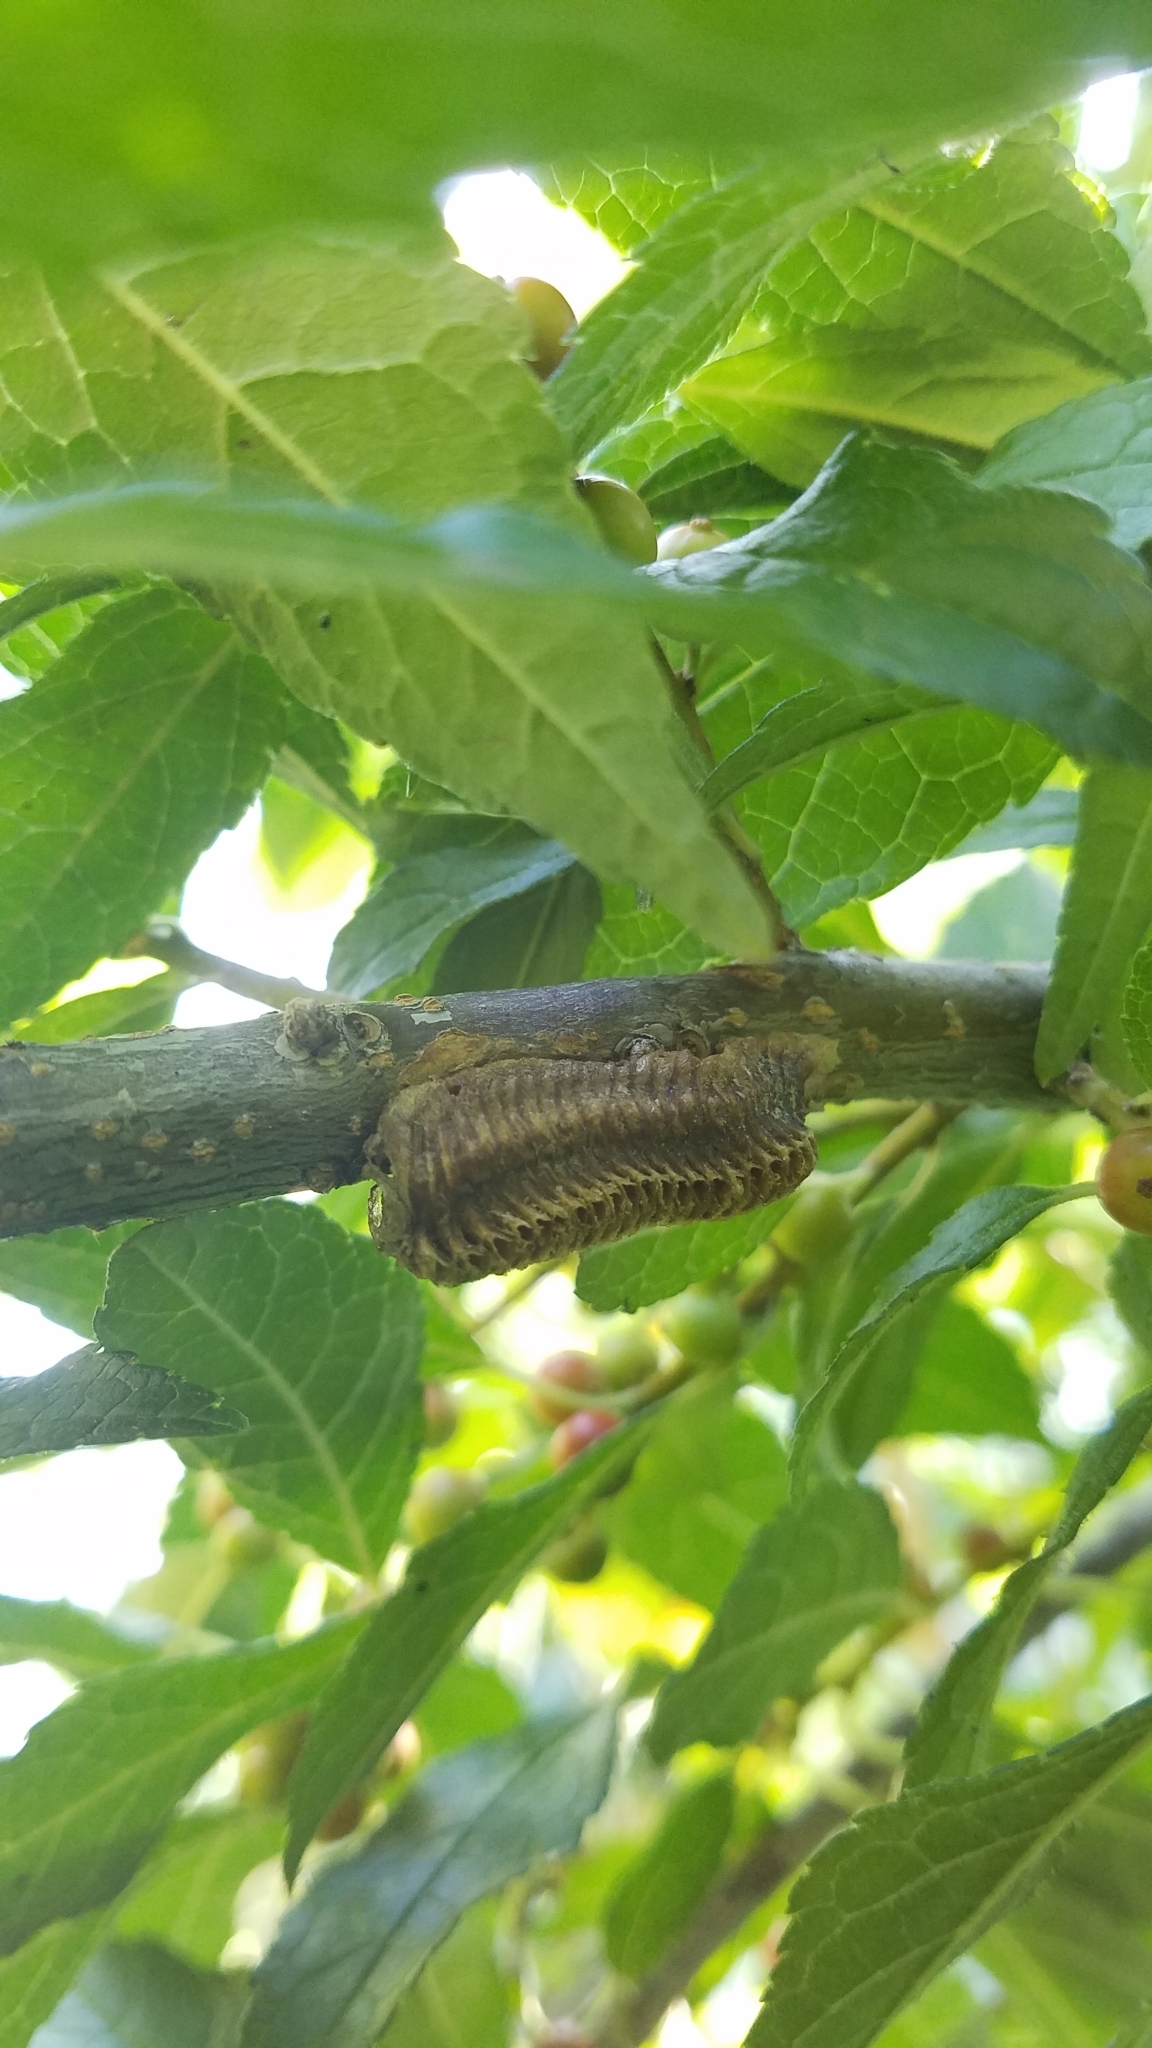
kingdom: Animalia
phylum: Arthropoda
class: Insecta
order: Mantodea
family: Mantidae
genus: Stagmomantis
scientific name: Stagmomantis carolina
